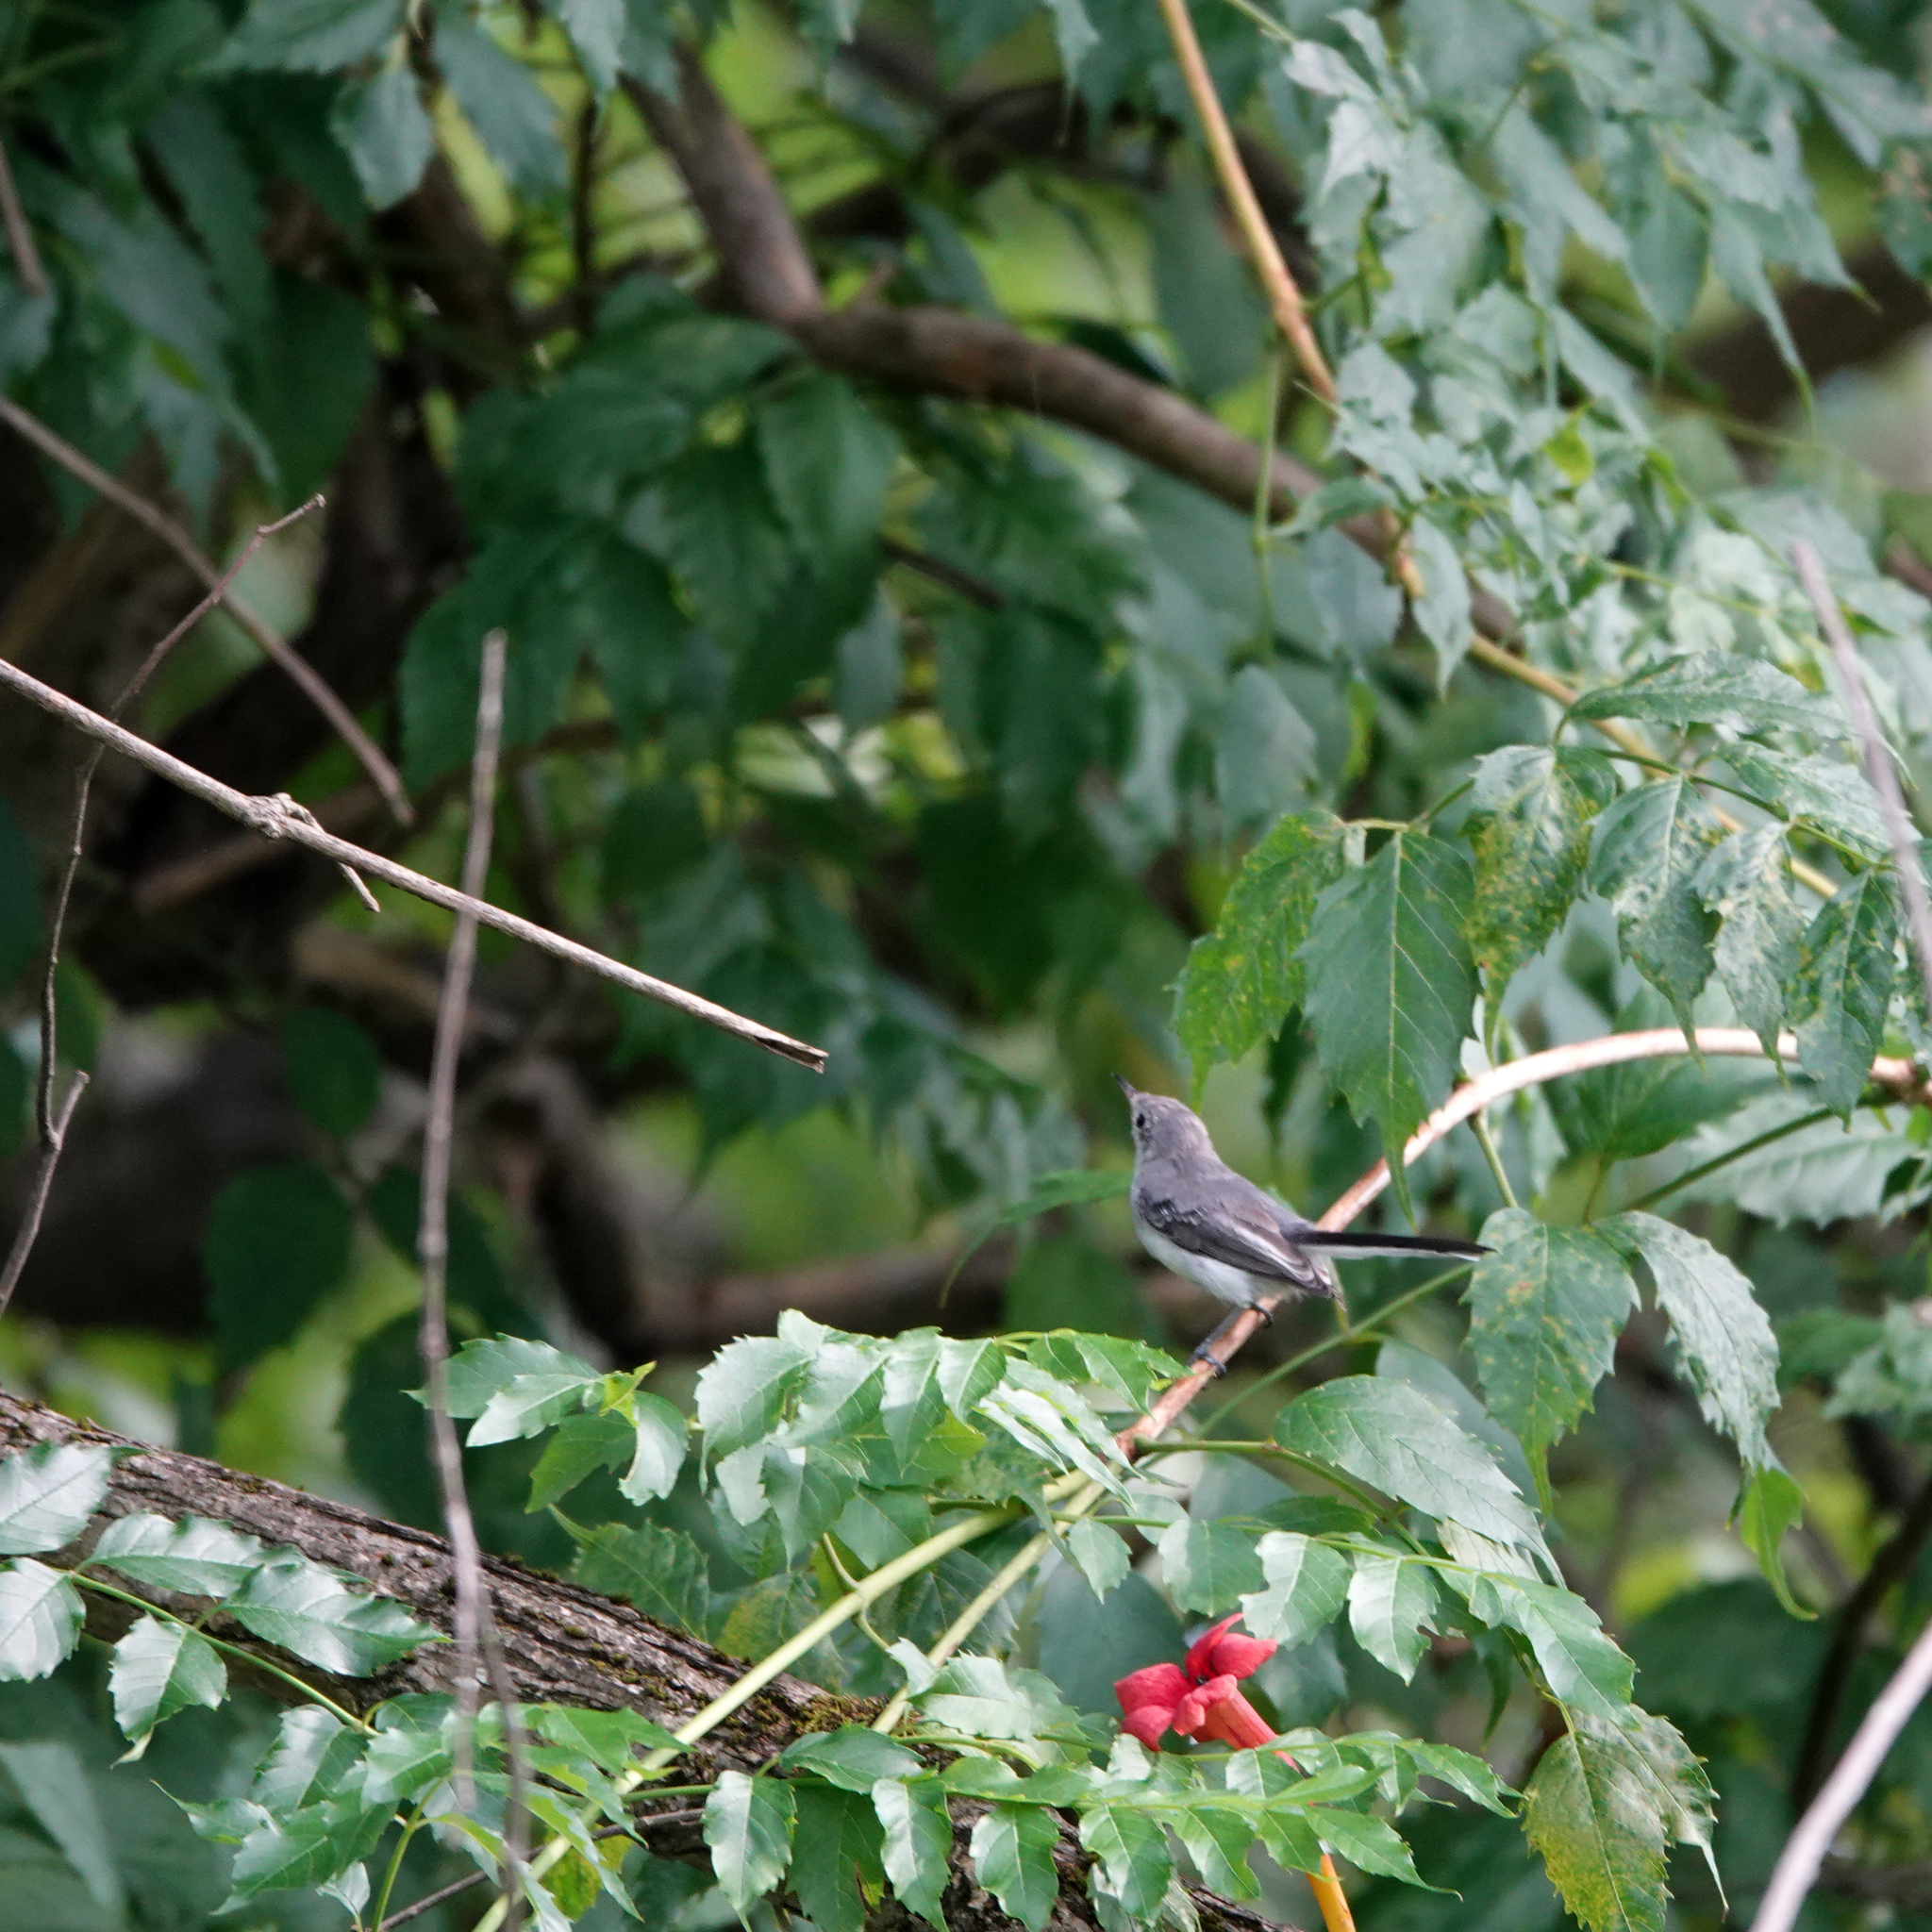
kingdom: Animalia
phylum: Chordata
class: Aves
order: Passeriformes
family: Polioptilidae
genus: Polioptila
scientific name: Polioptila caerulea
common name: Blue-gray gnatcatcher
